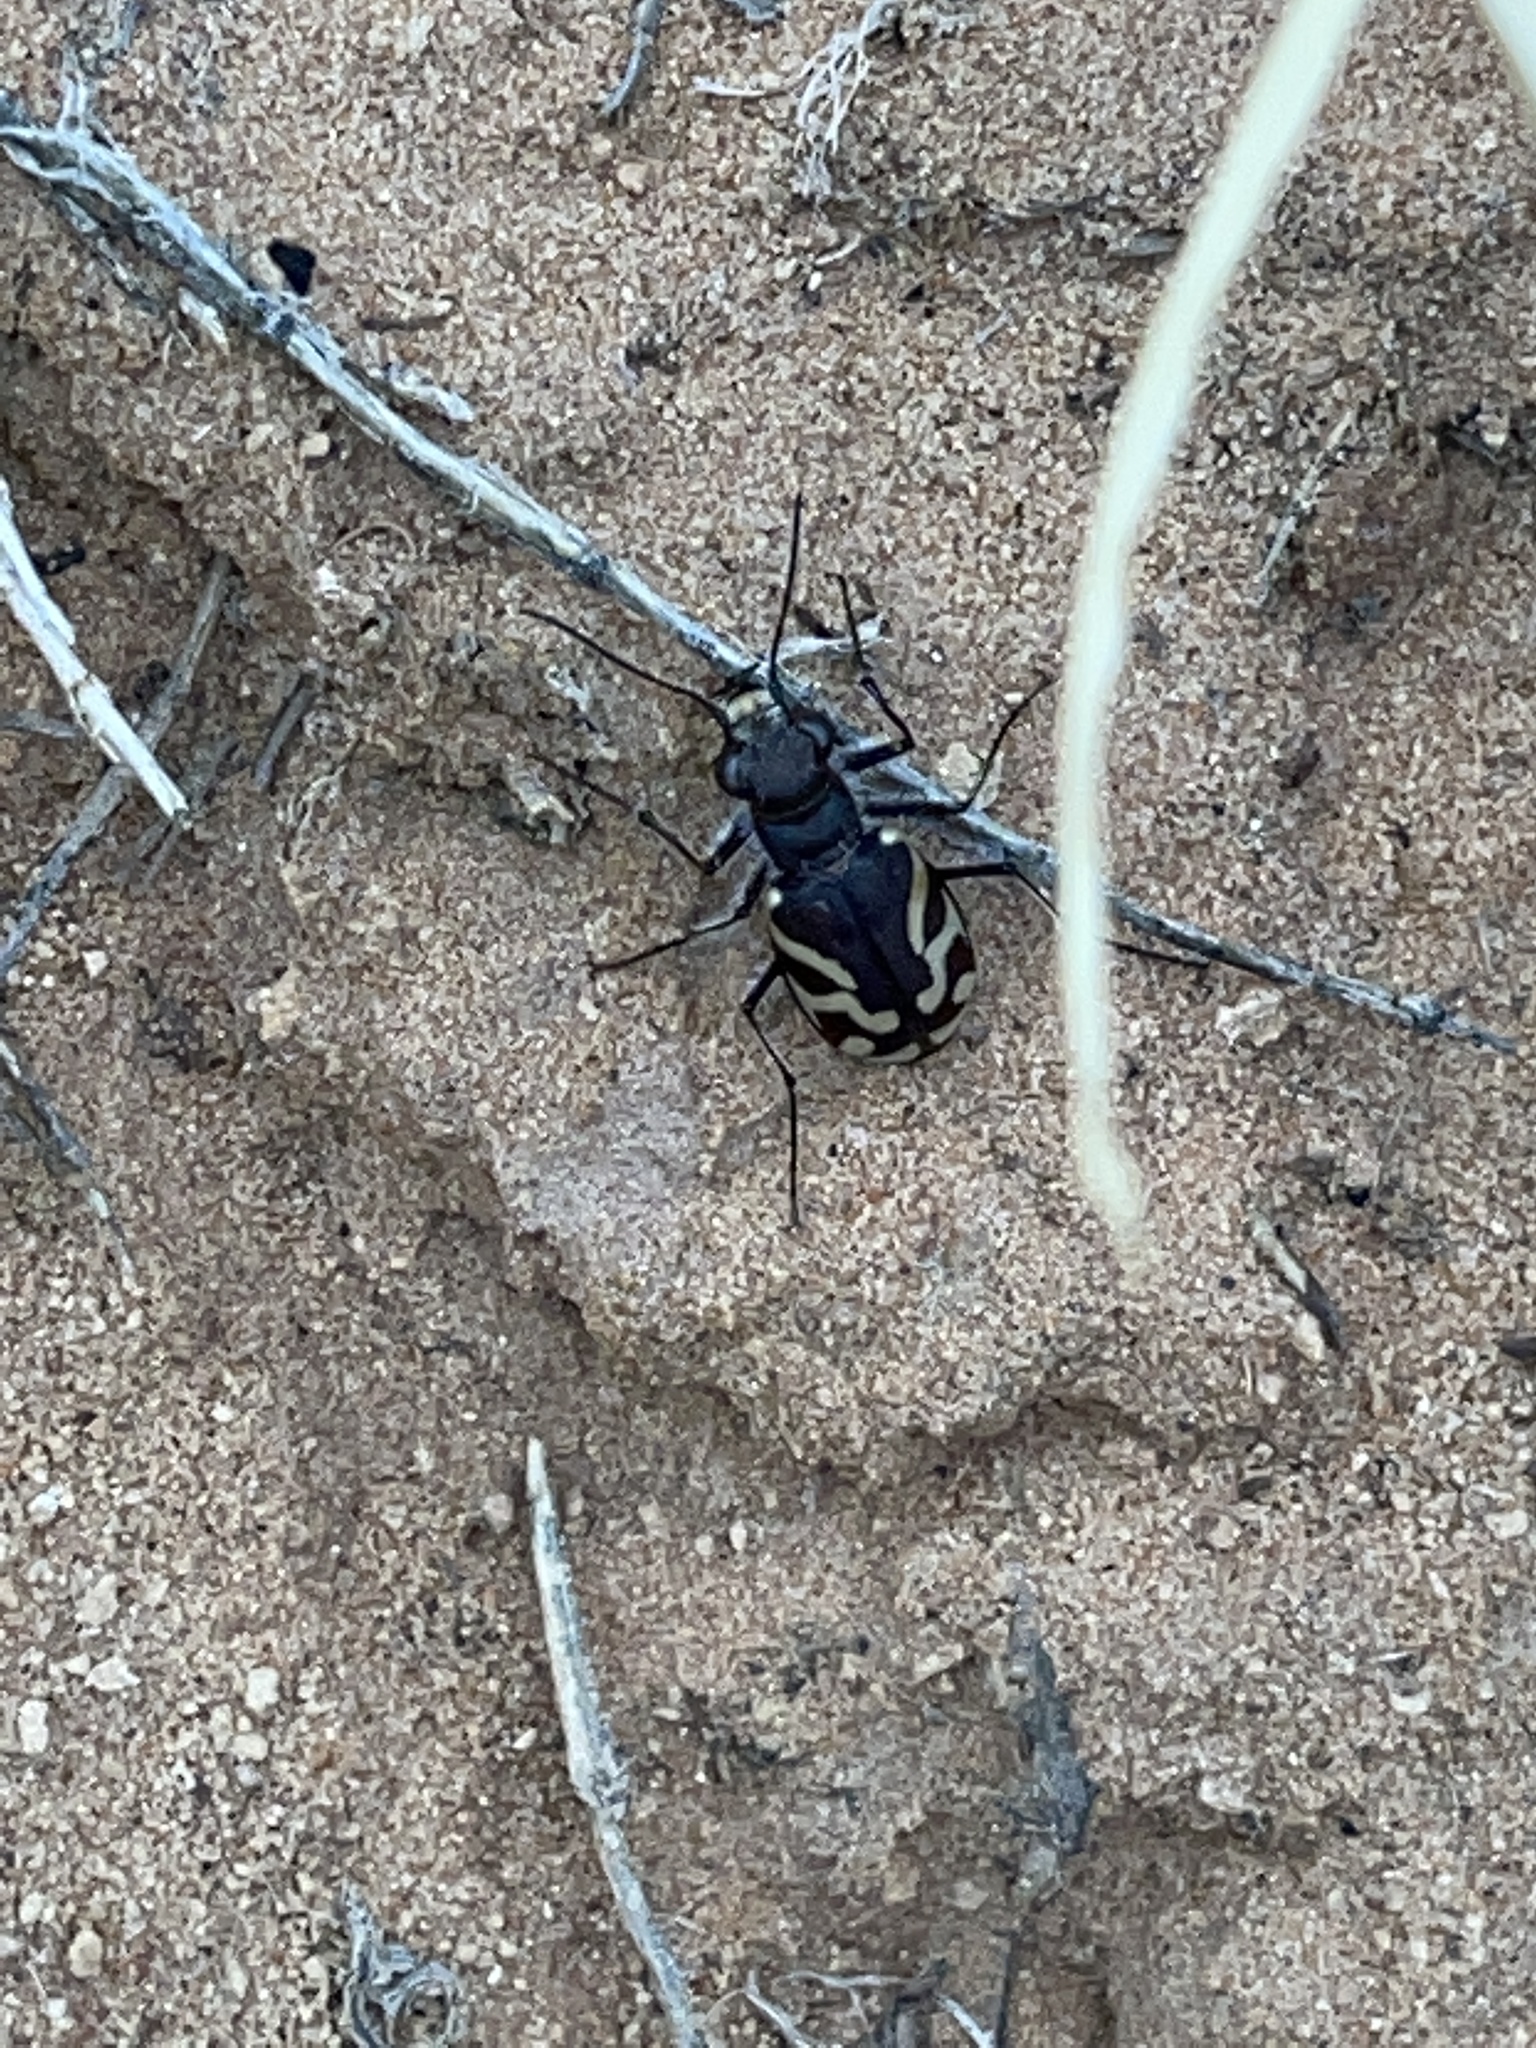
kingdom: Animalia
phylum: Arthropoda
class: Insecta
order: Coleoptera
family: Carabidae
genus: Cicindela
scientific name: Cicindela tranquebarica
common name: Oblique-lined tiger beetle
